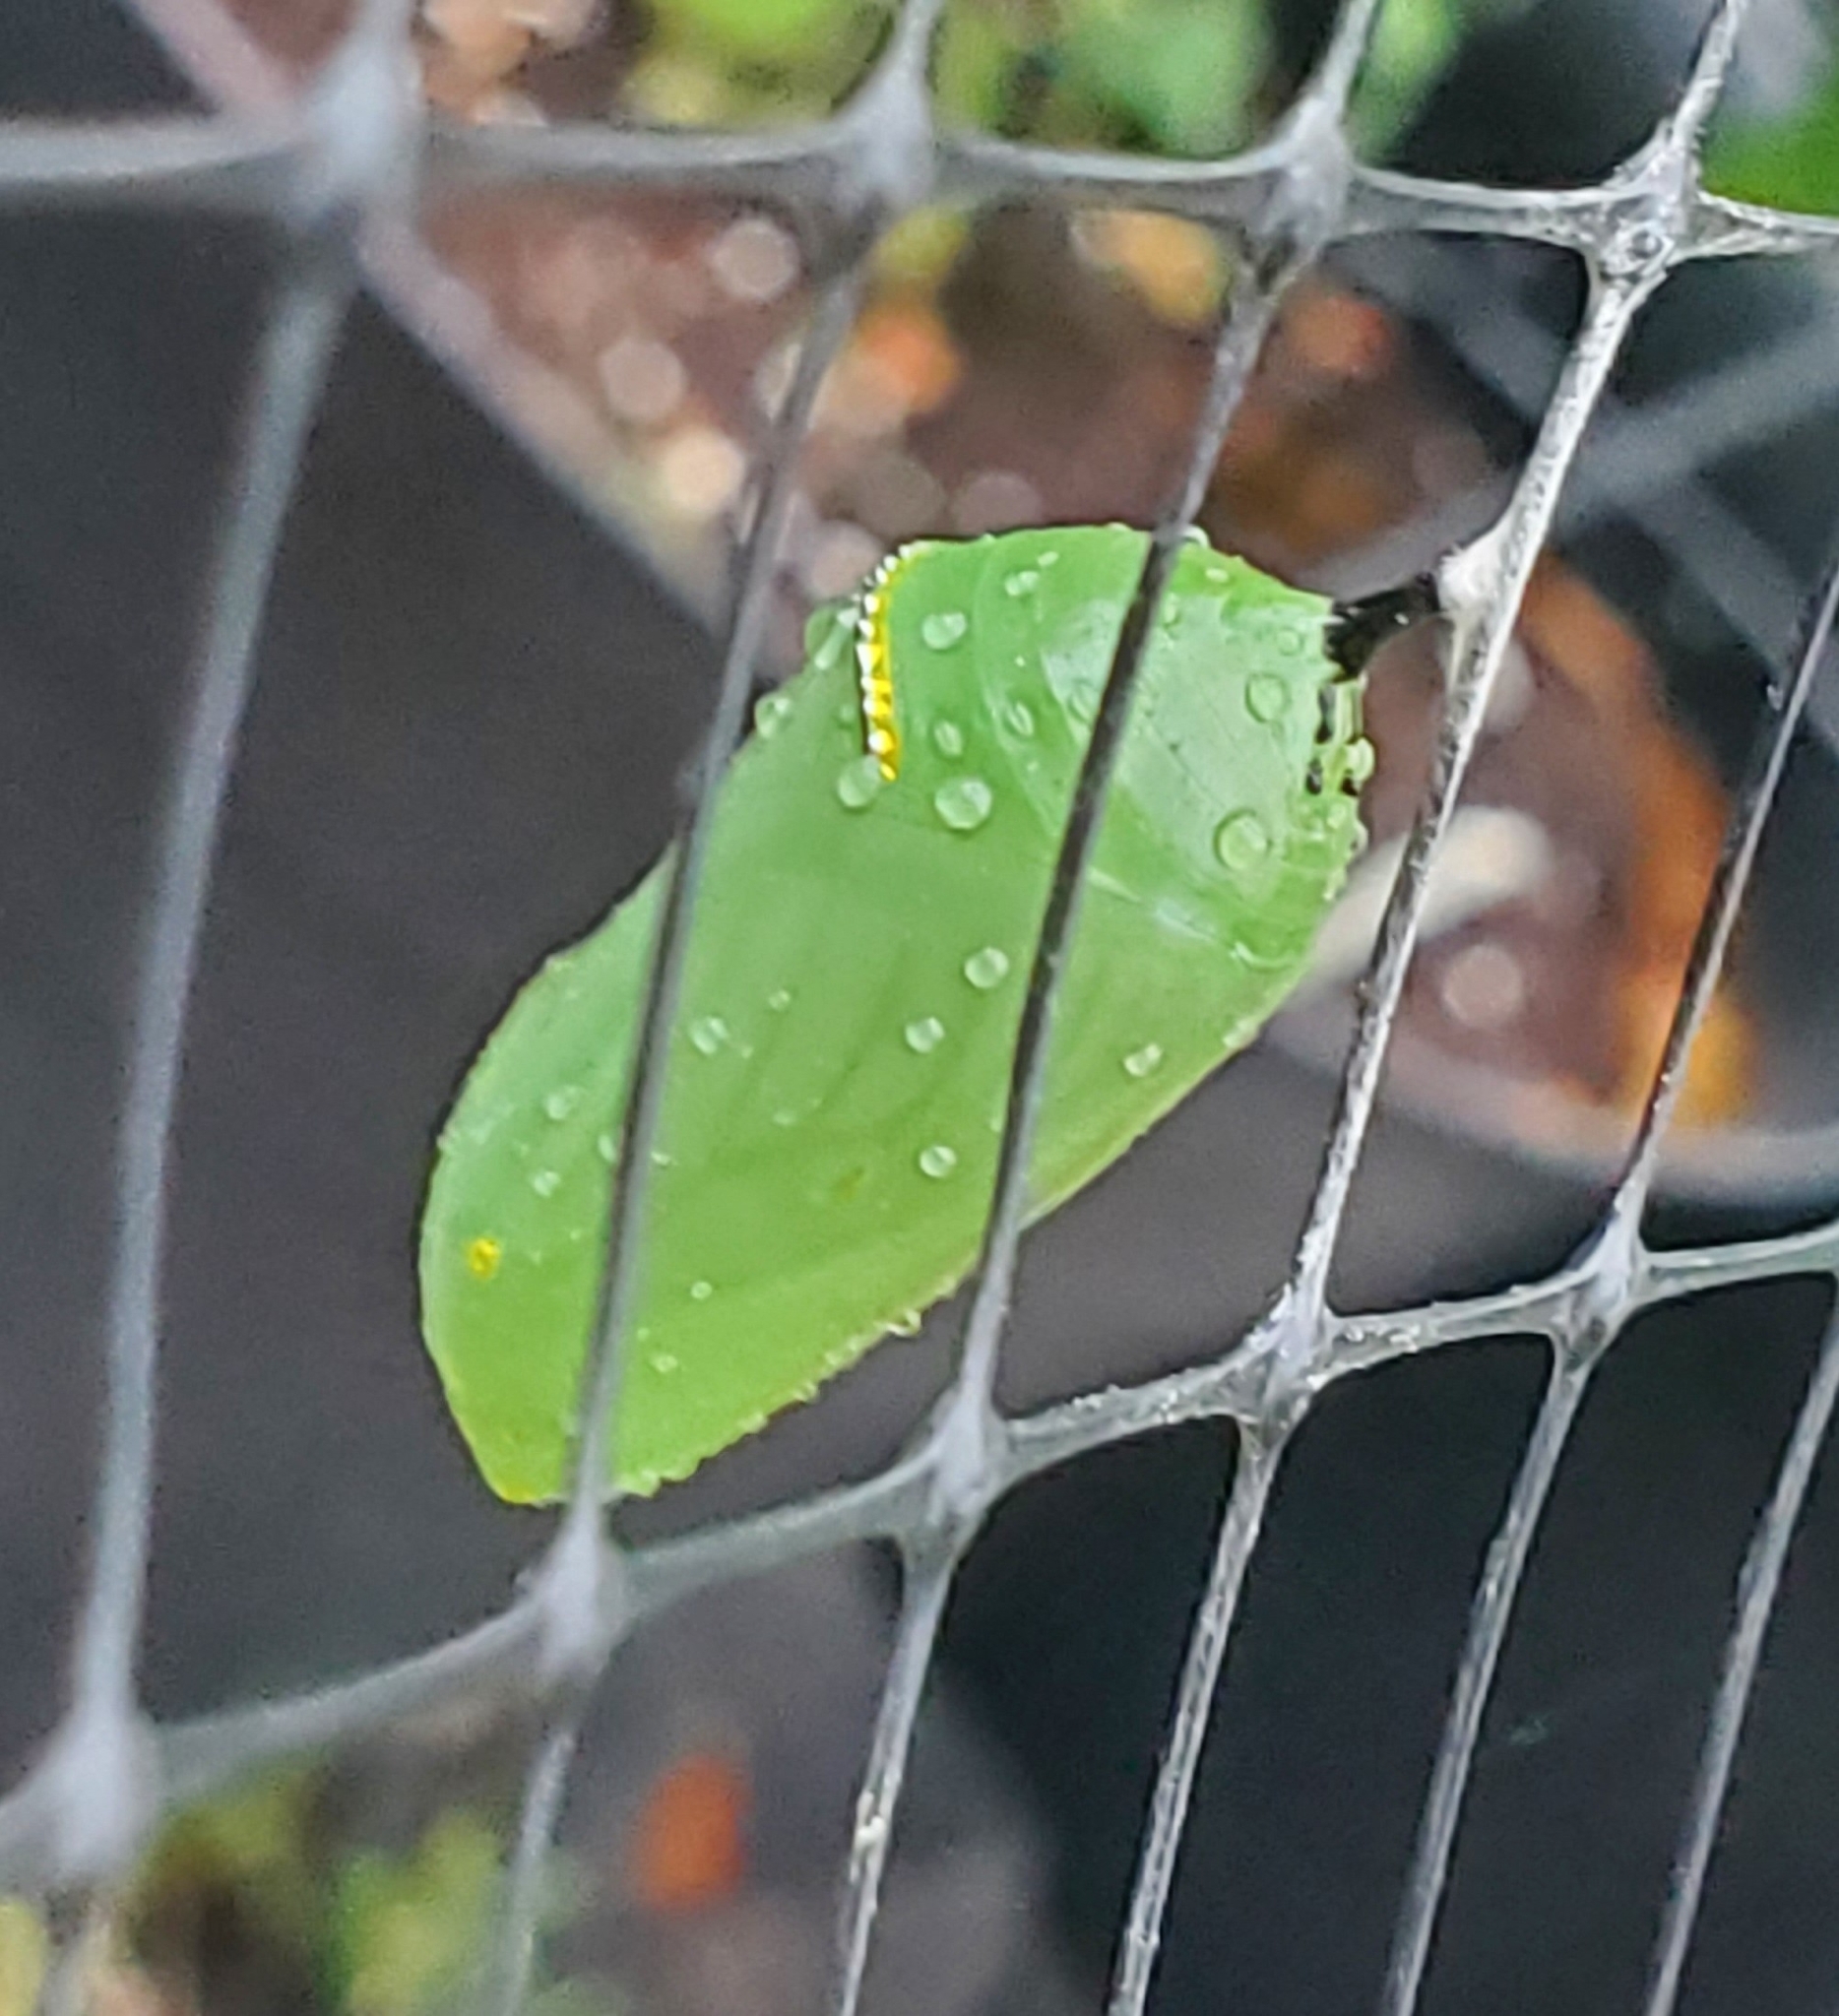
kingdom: Animalia
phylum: Arthropoda
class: Insecta
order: Lepidoptera
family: Nymphalidae
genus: Danaus
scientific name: Danaus plexippus
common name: Monarch
